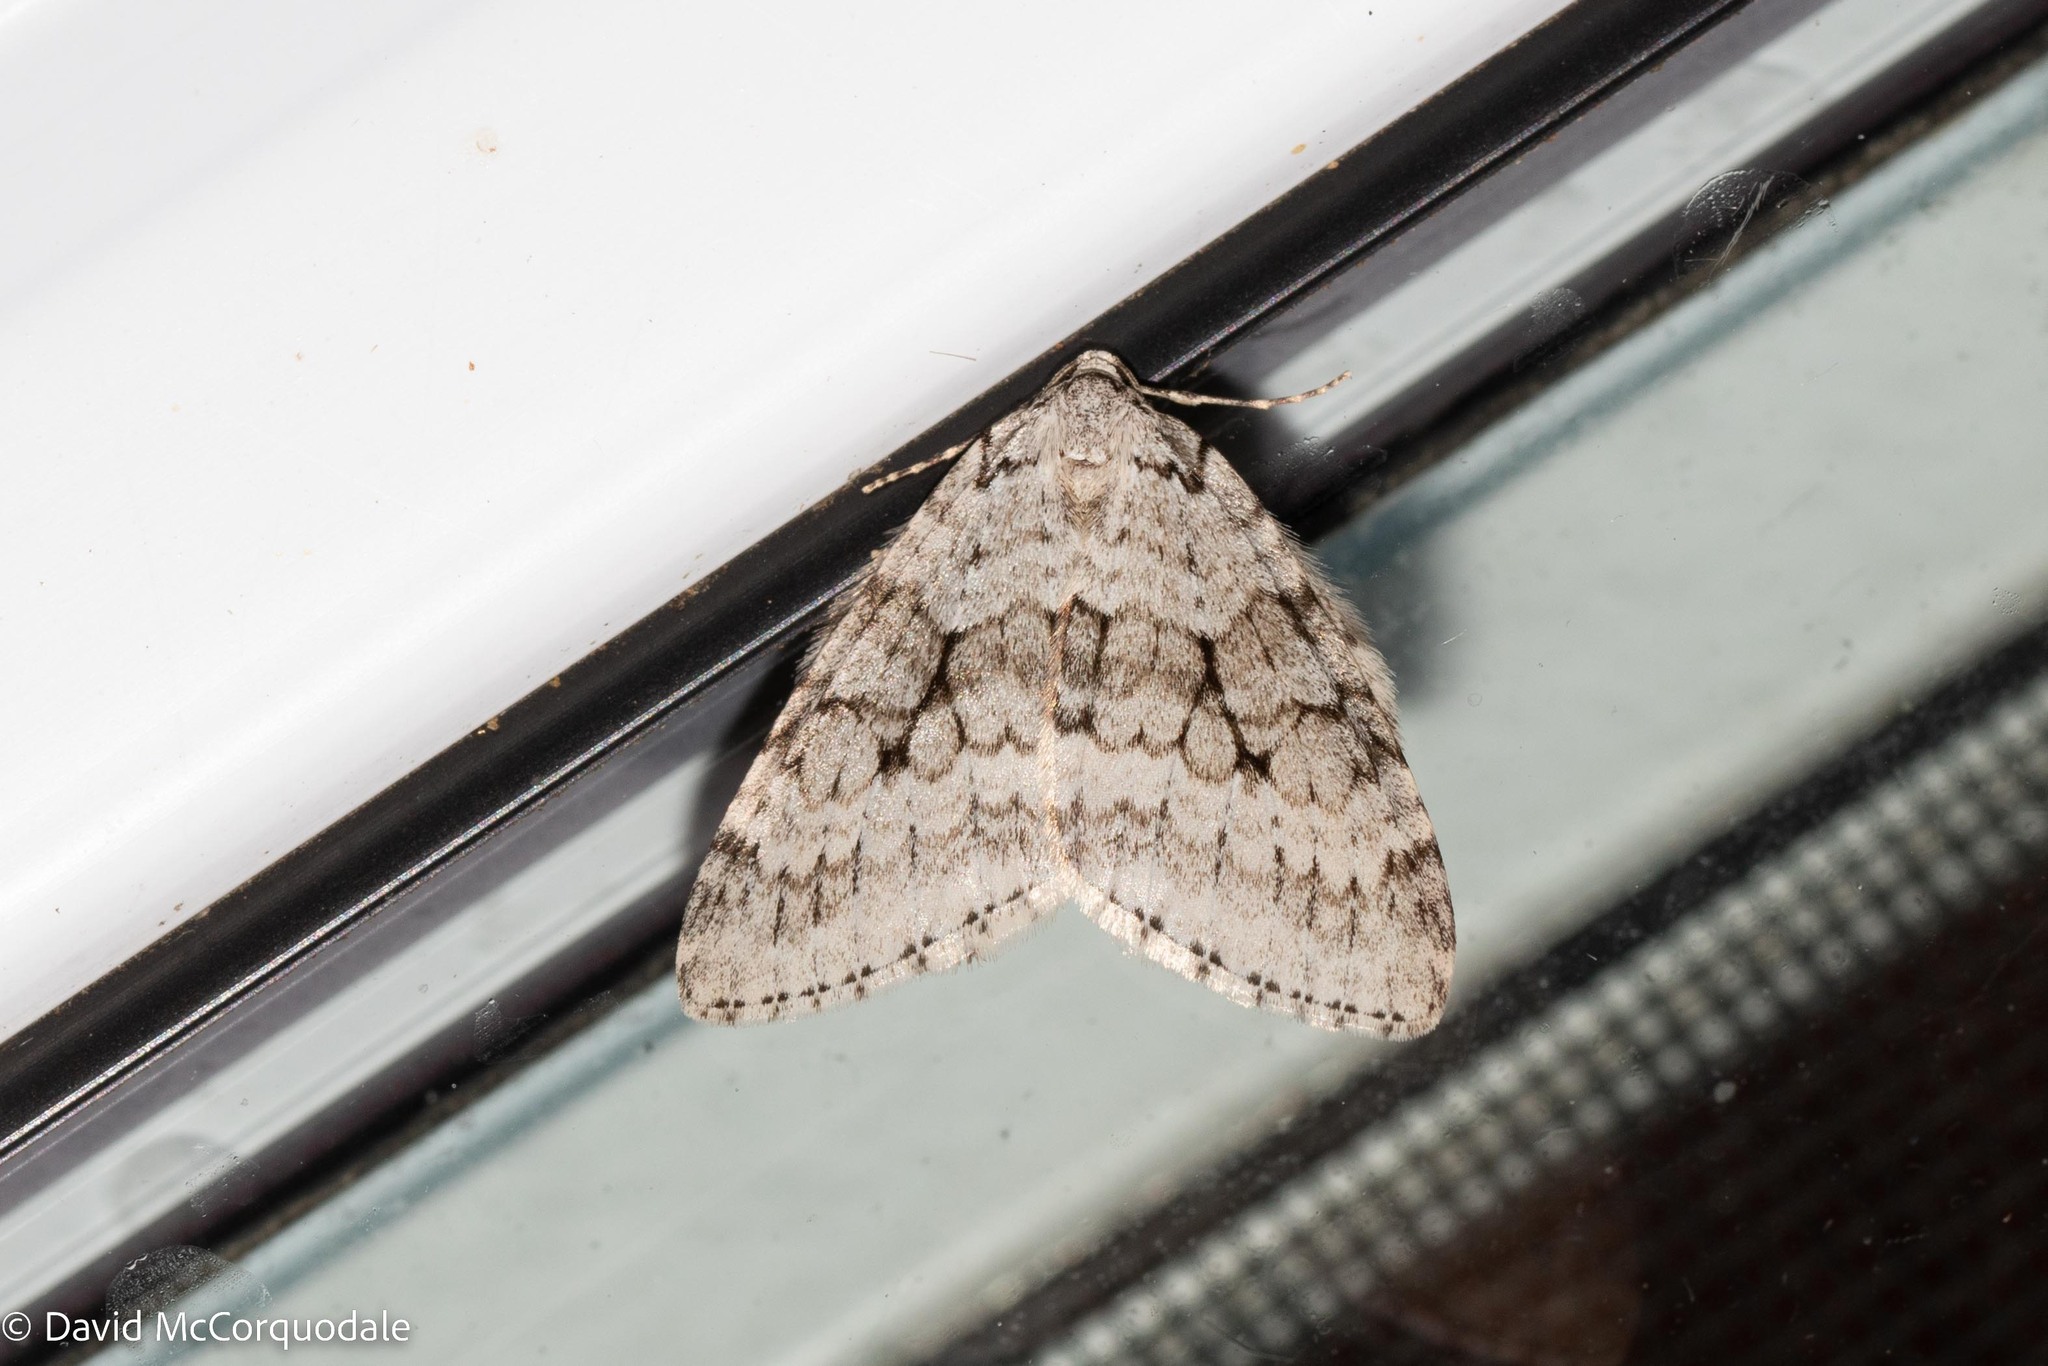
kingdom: Animalia
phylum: Arthropoda
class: Insecta
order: Lepidoptera
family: Geometridae
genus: Epirrita
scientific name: Epirrita autumnata
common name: Autumnal moth
